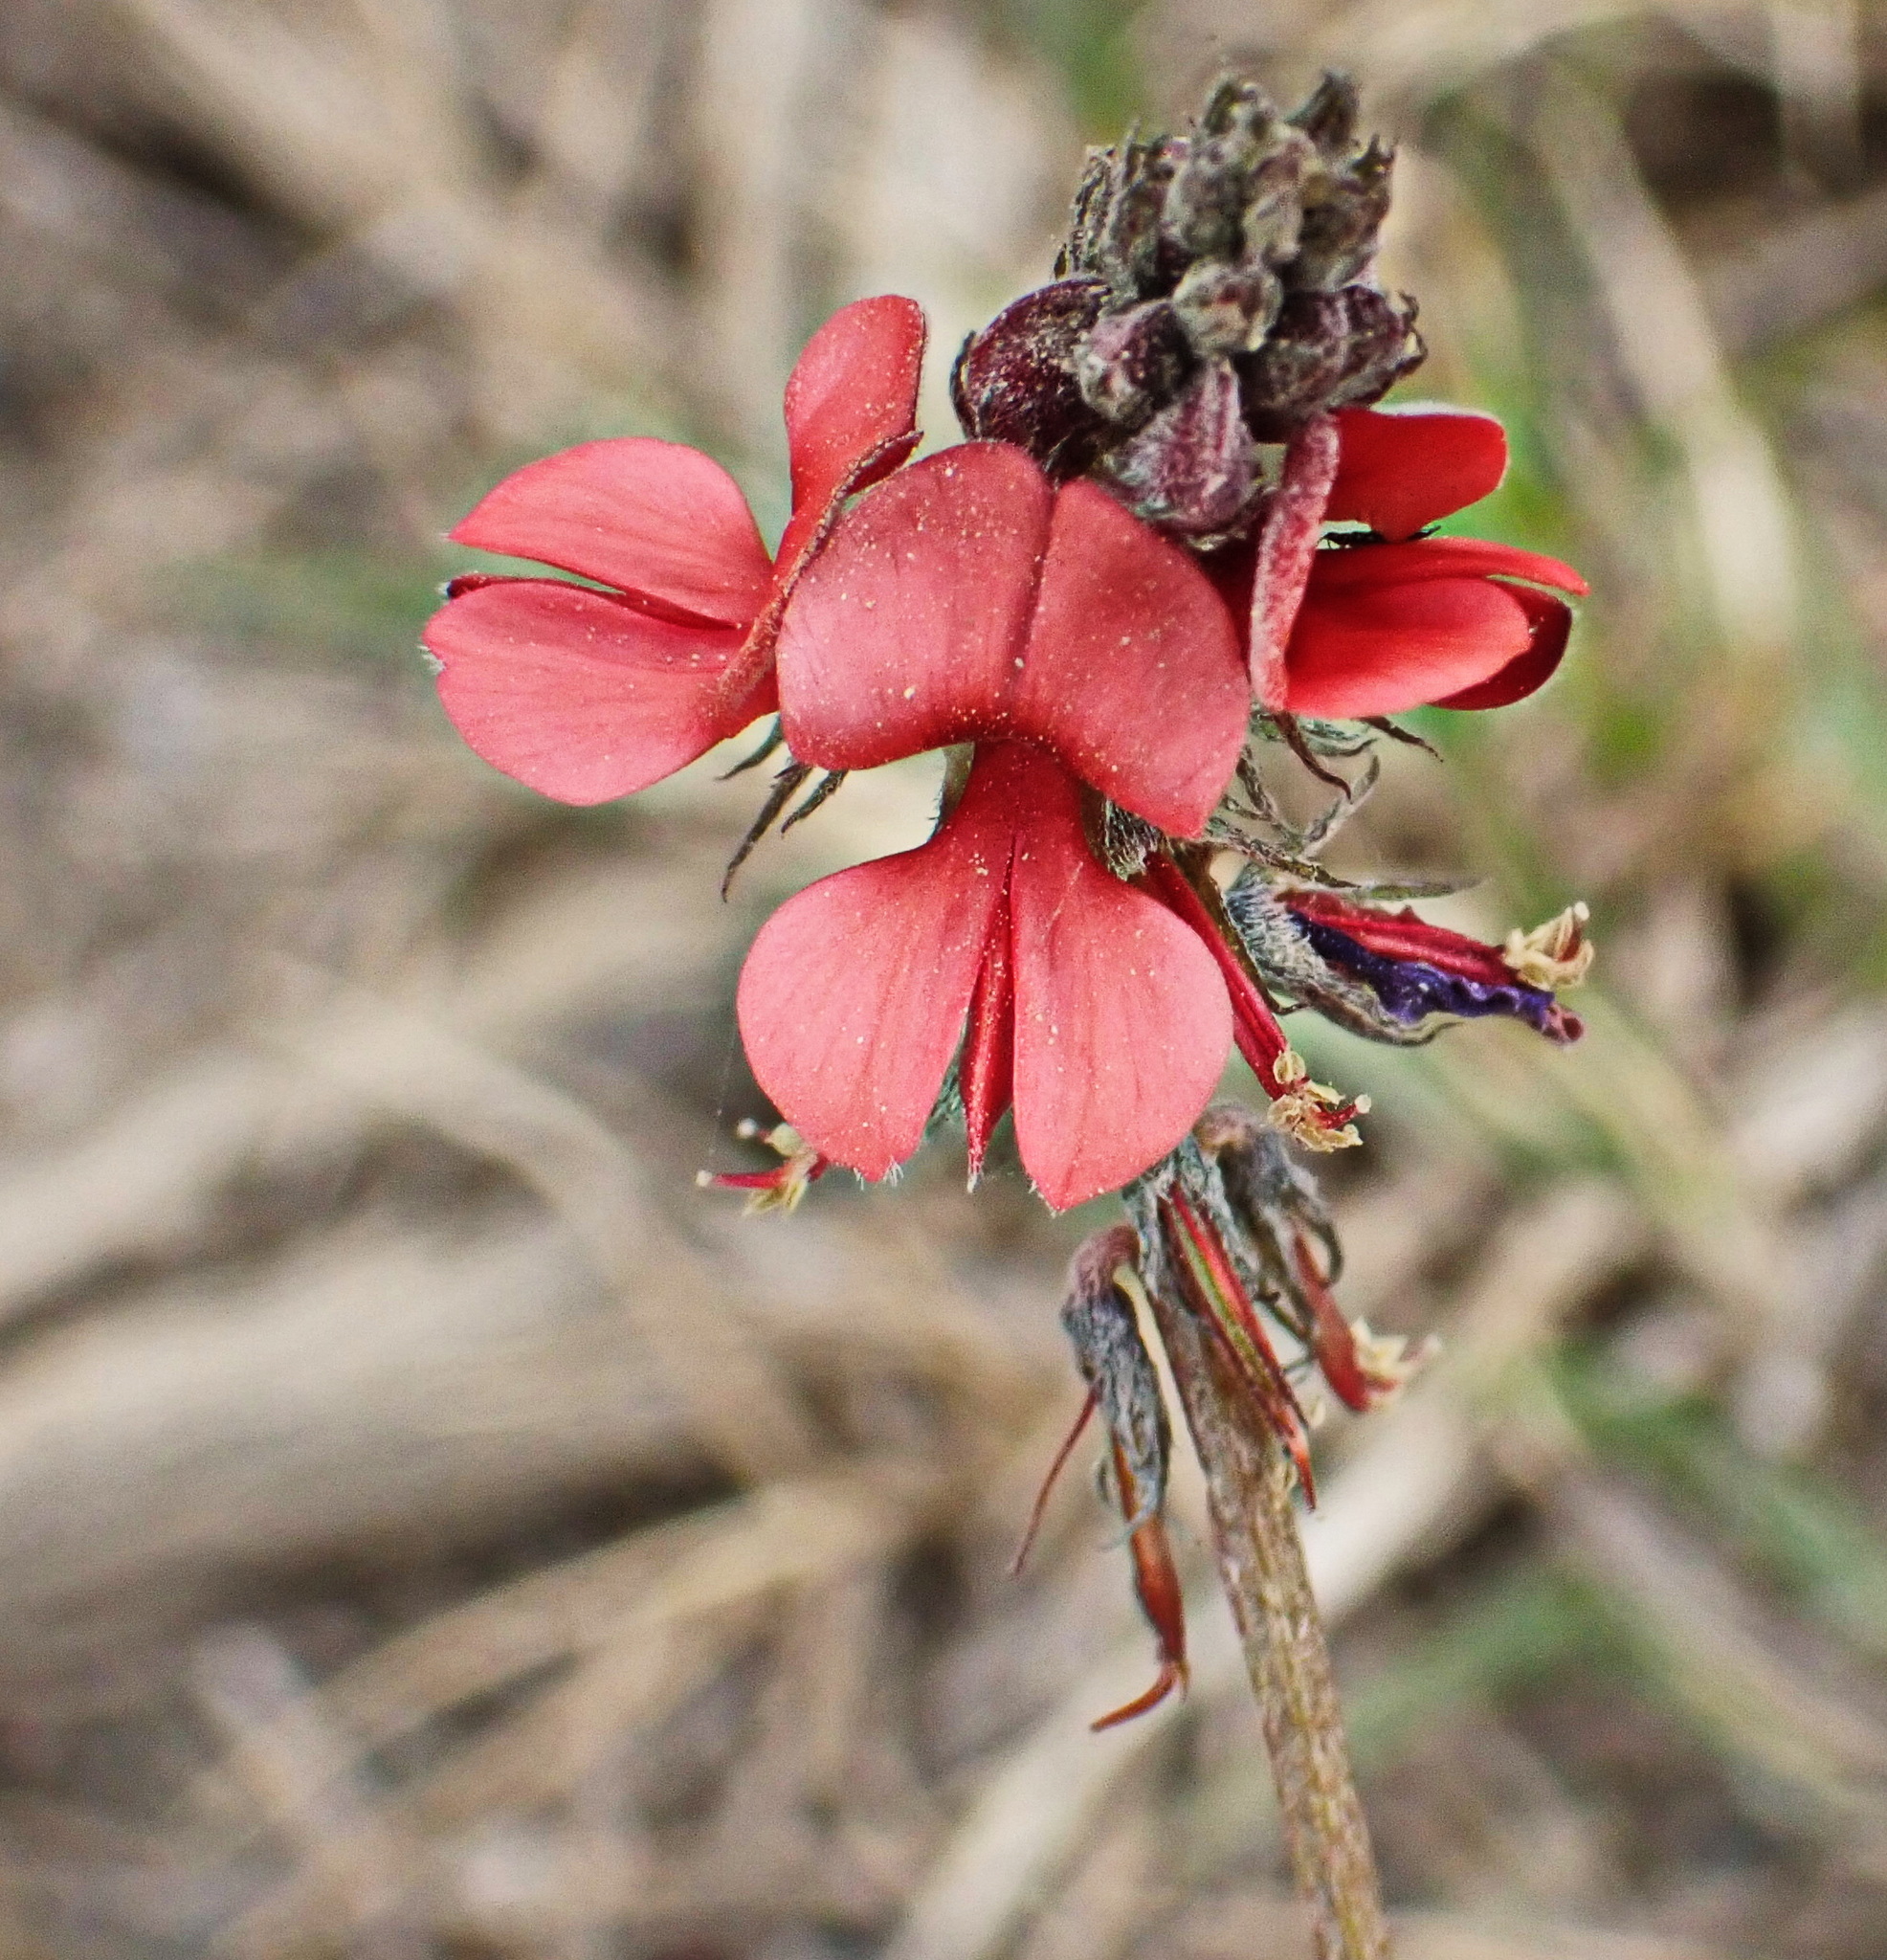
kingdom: Plantae
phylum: Tracheophyta
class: Magnoliopsida
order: Fabales
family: Fabaceae
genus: Indigofera
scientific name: Indigofera heterophylla
